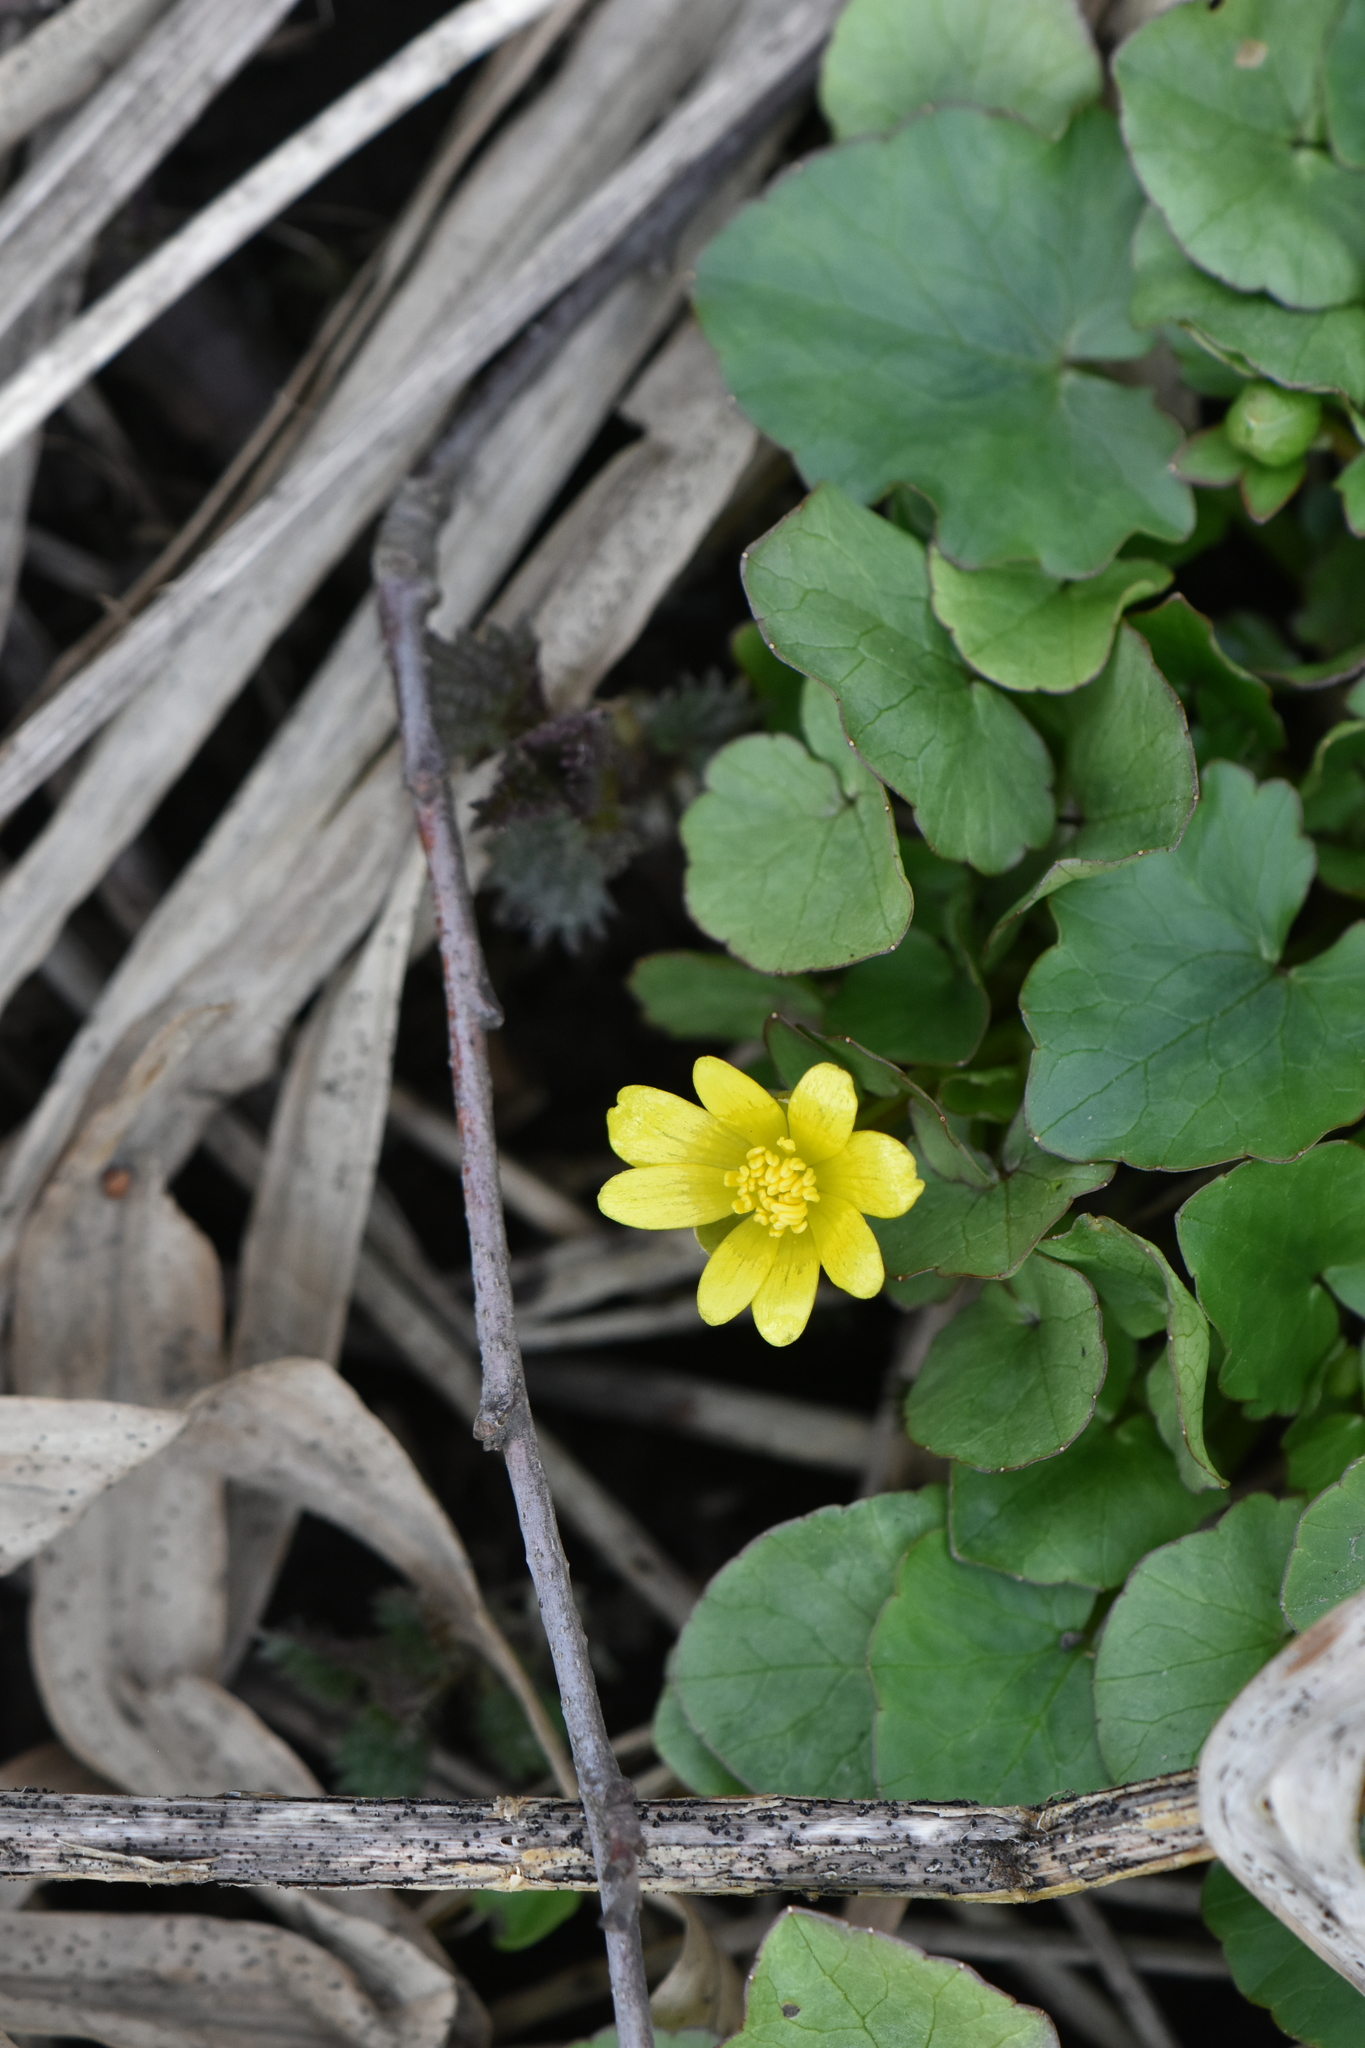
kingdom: Plantae
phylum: Tracheophyta
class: Magnoliopsida
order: Ranunculales
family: Ranunculaceae
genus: Ficaria
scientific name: Ficaria verna
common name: Lesser celandine
